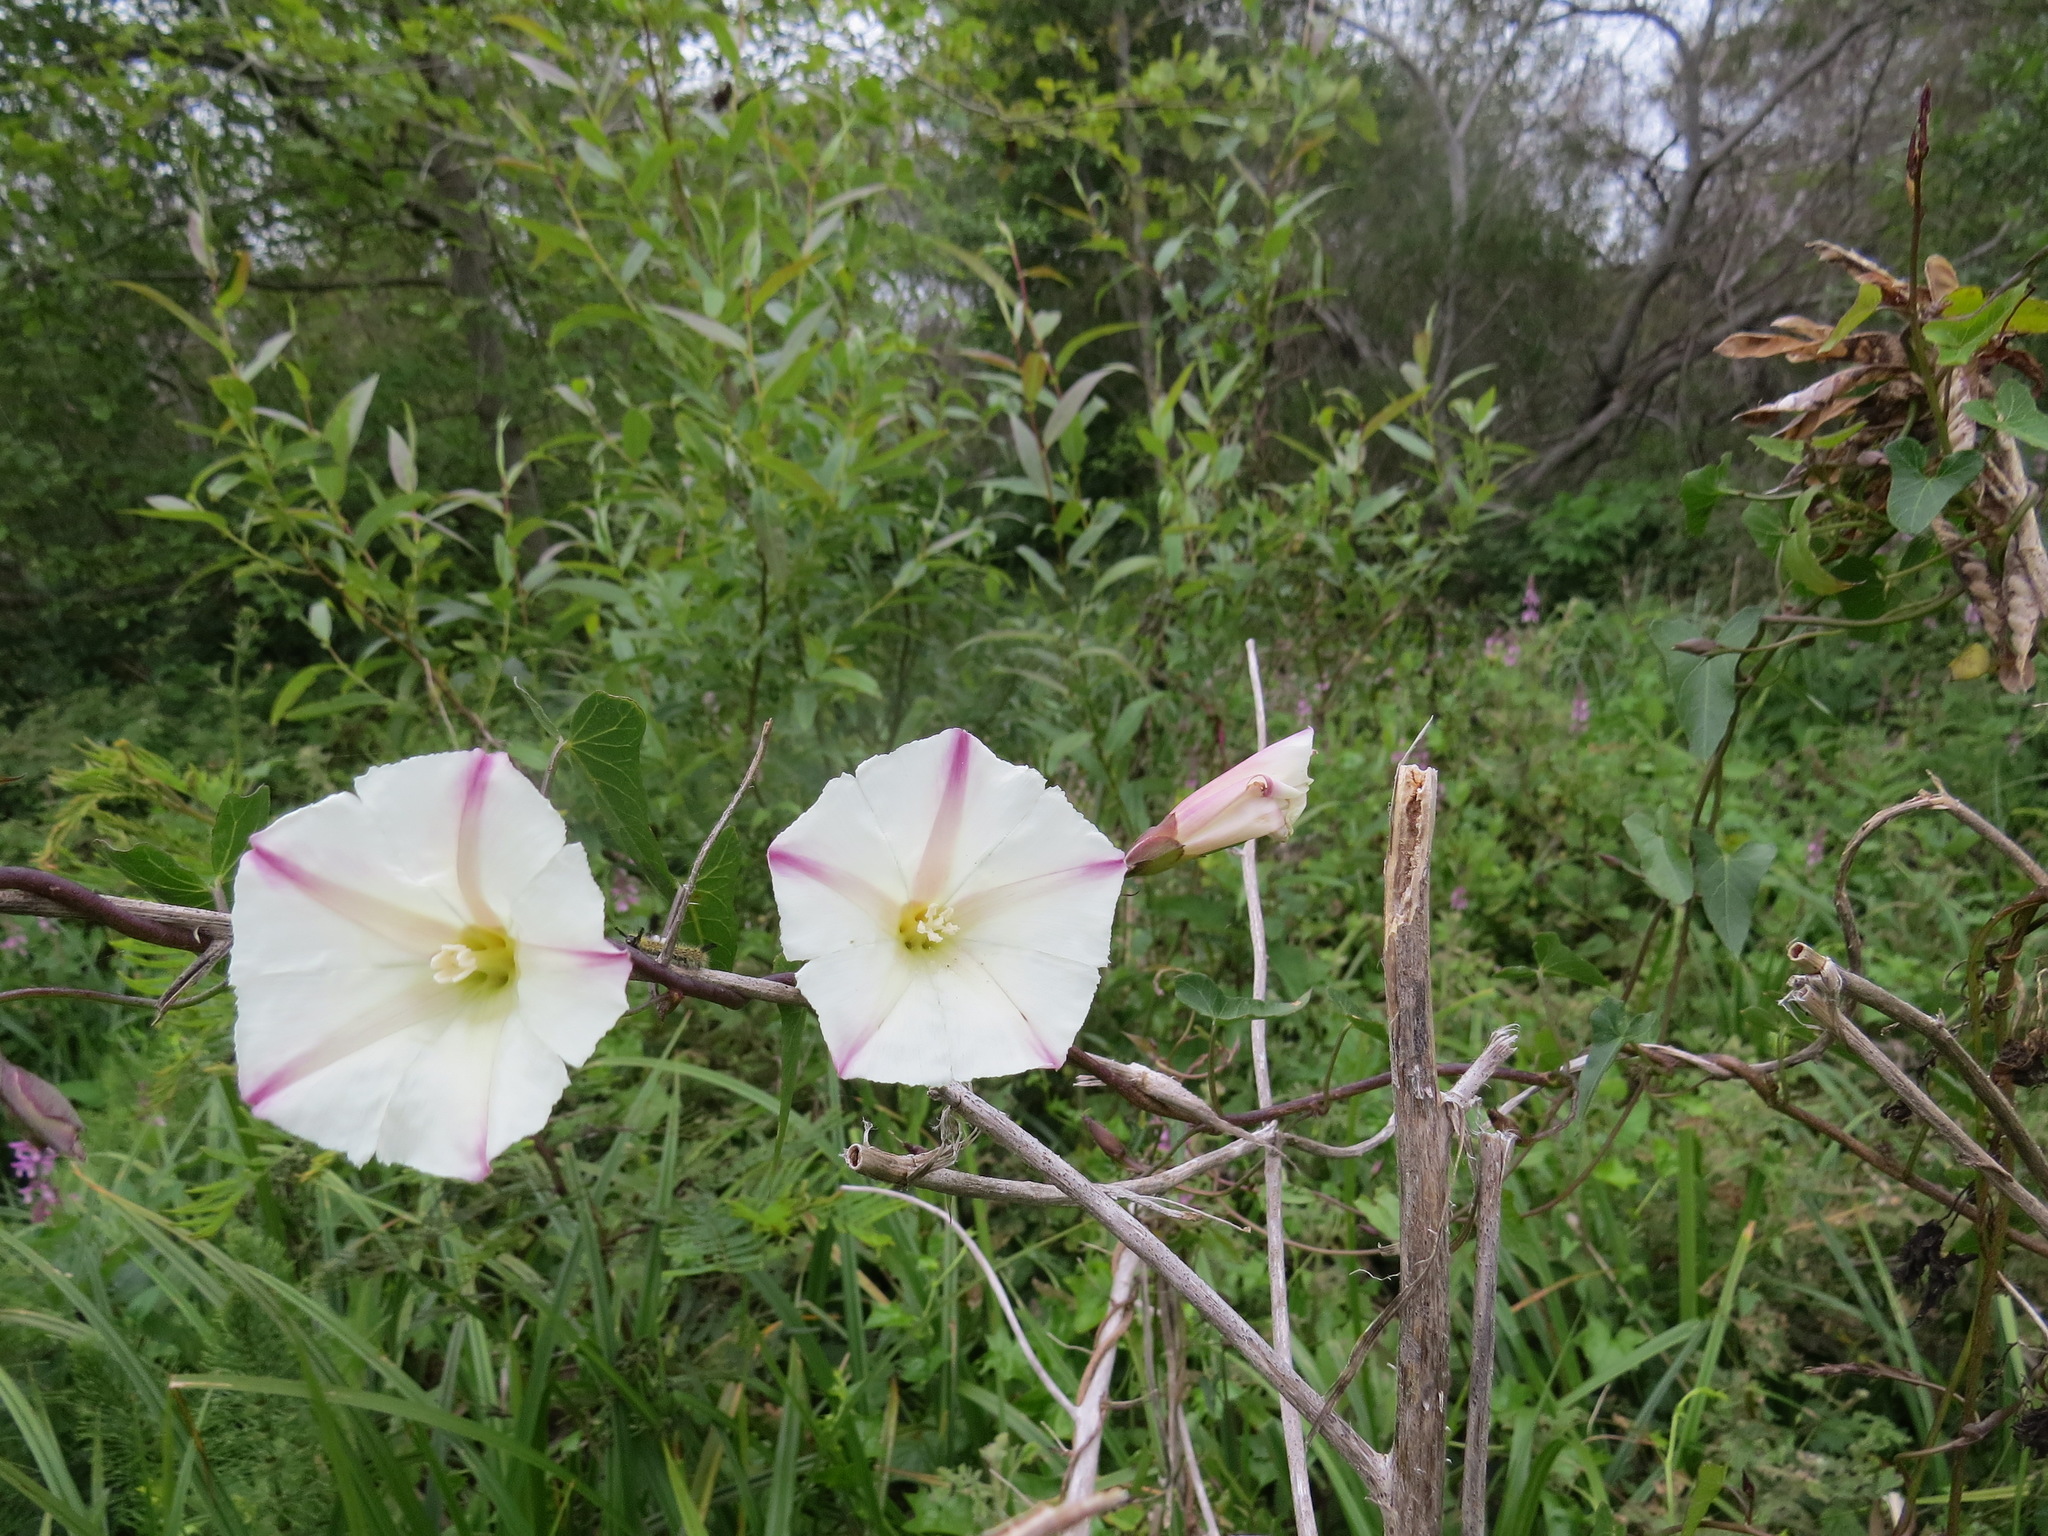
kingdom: Plantae
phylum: Tracheophyta
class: Magnoliopsida
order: Solanales
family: Convolvulaceae
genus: Calystegia
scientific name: Calystegia purpurata
